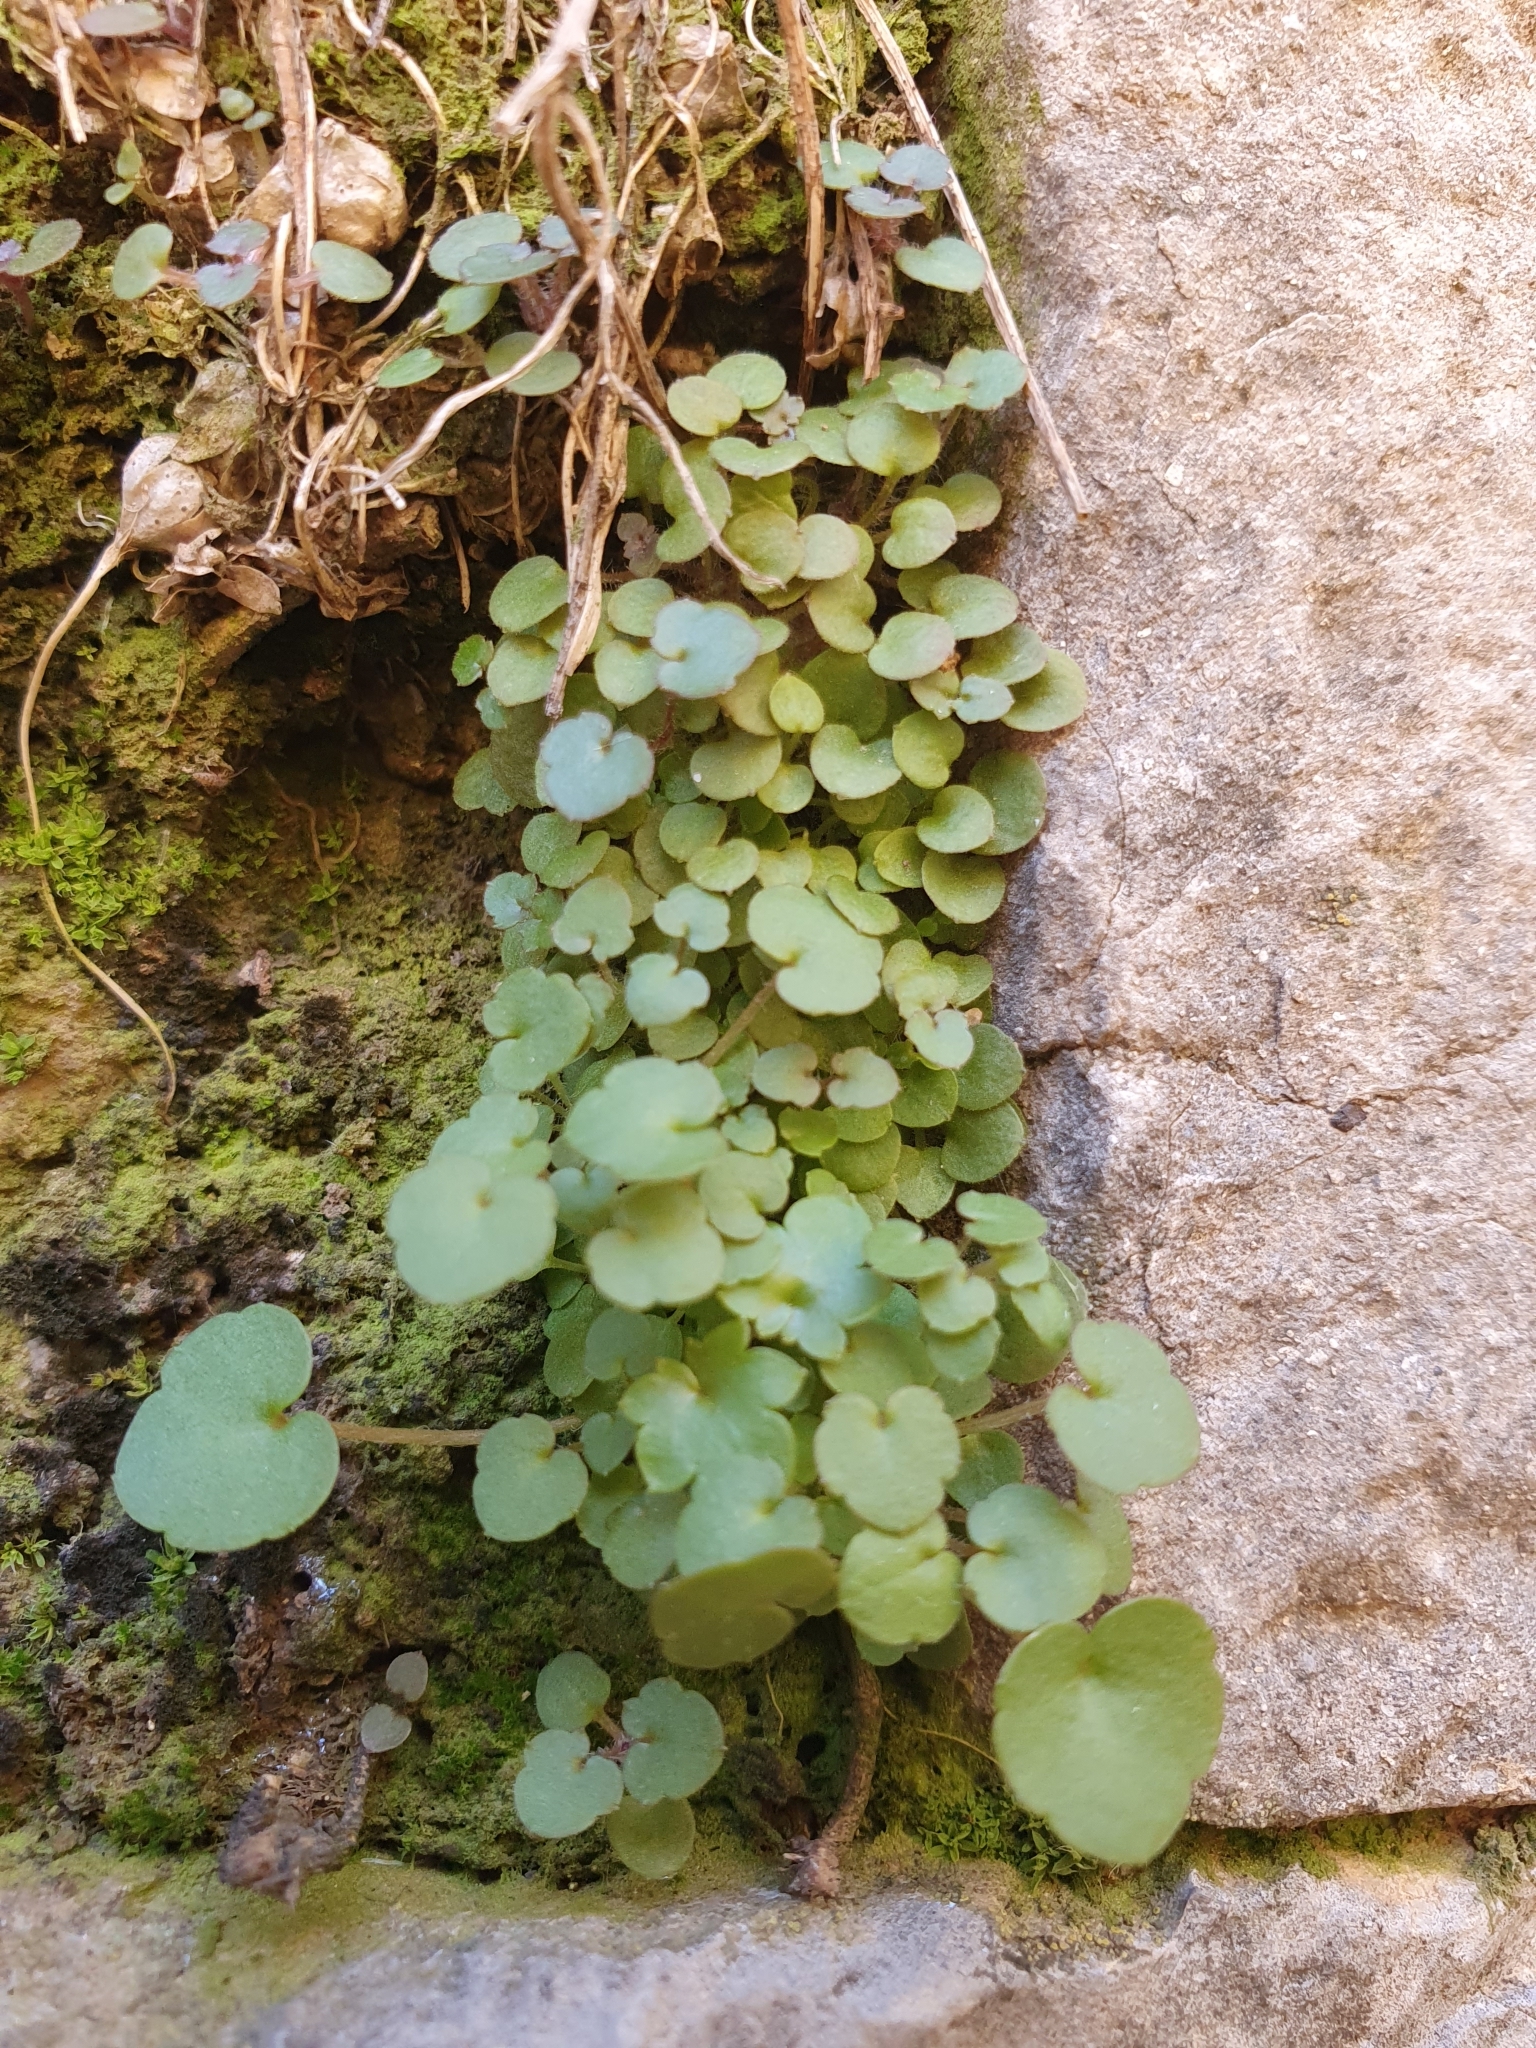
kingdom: Plantae
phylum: Tracheophyta
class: Magnoliopsida
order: Lamiales
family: Plantaginaceae
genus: Cymbalaria
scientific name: Cymbalaria muralis
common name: Ivy-leaved toadflax
